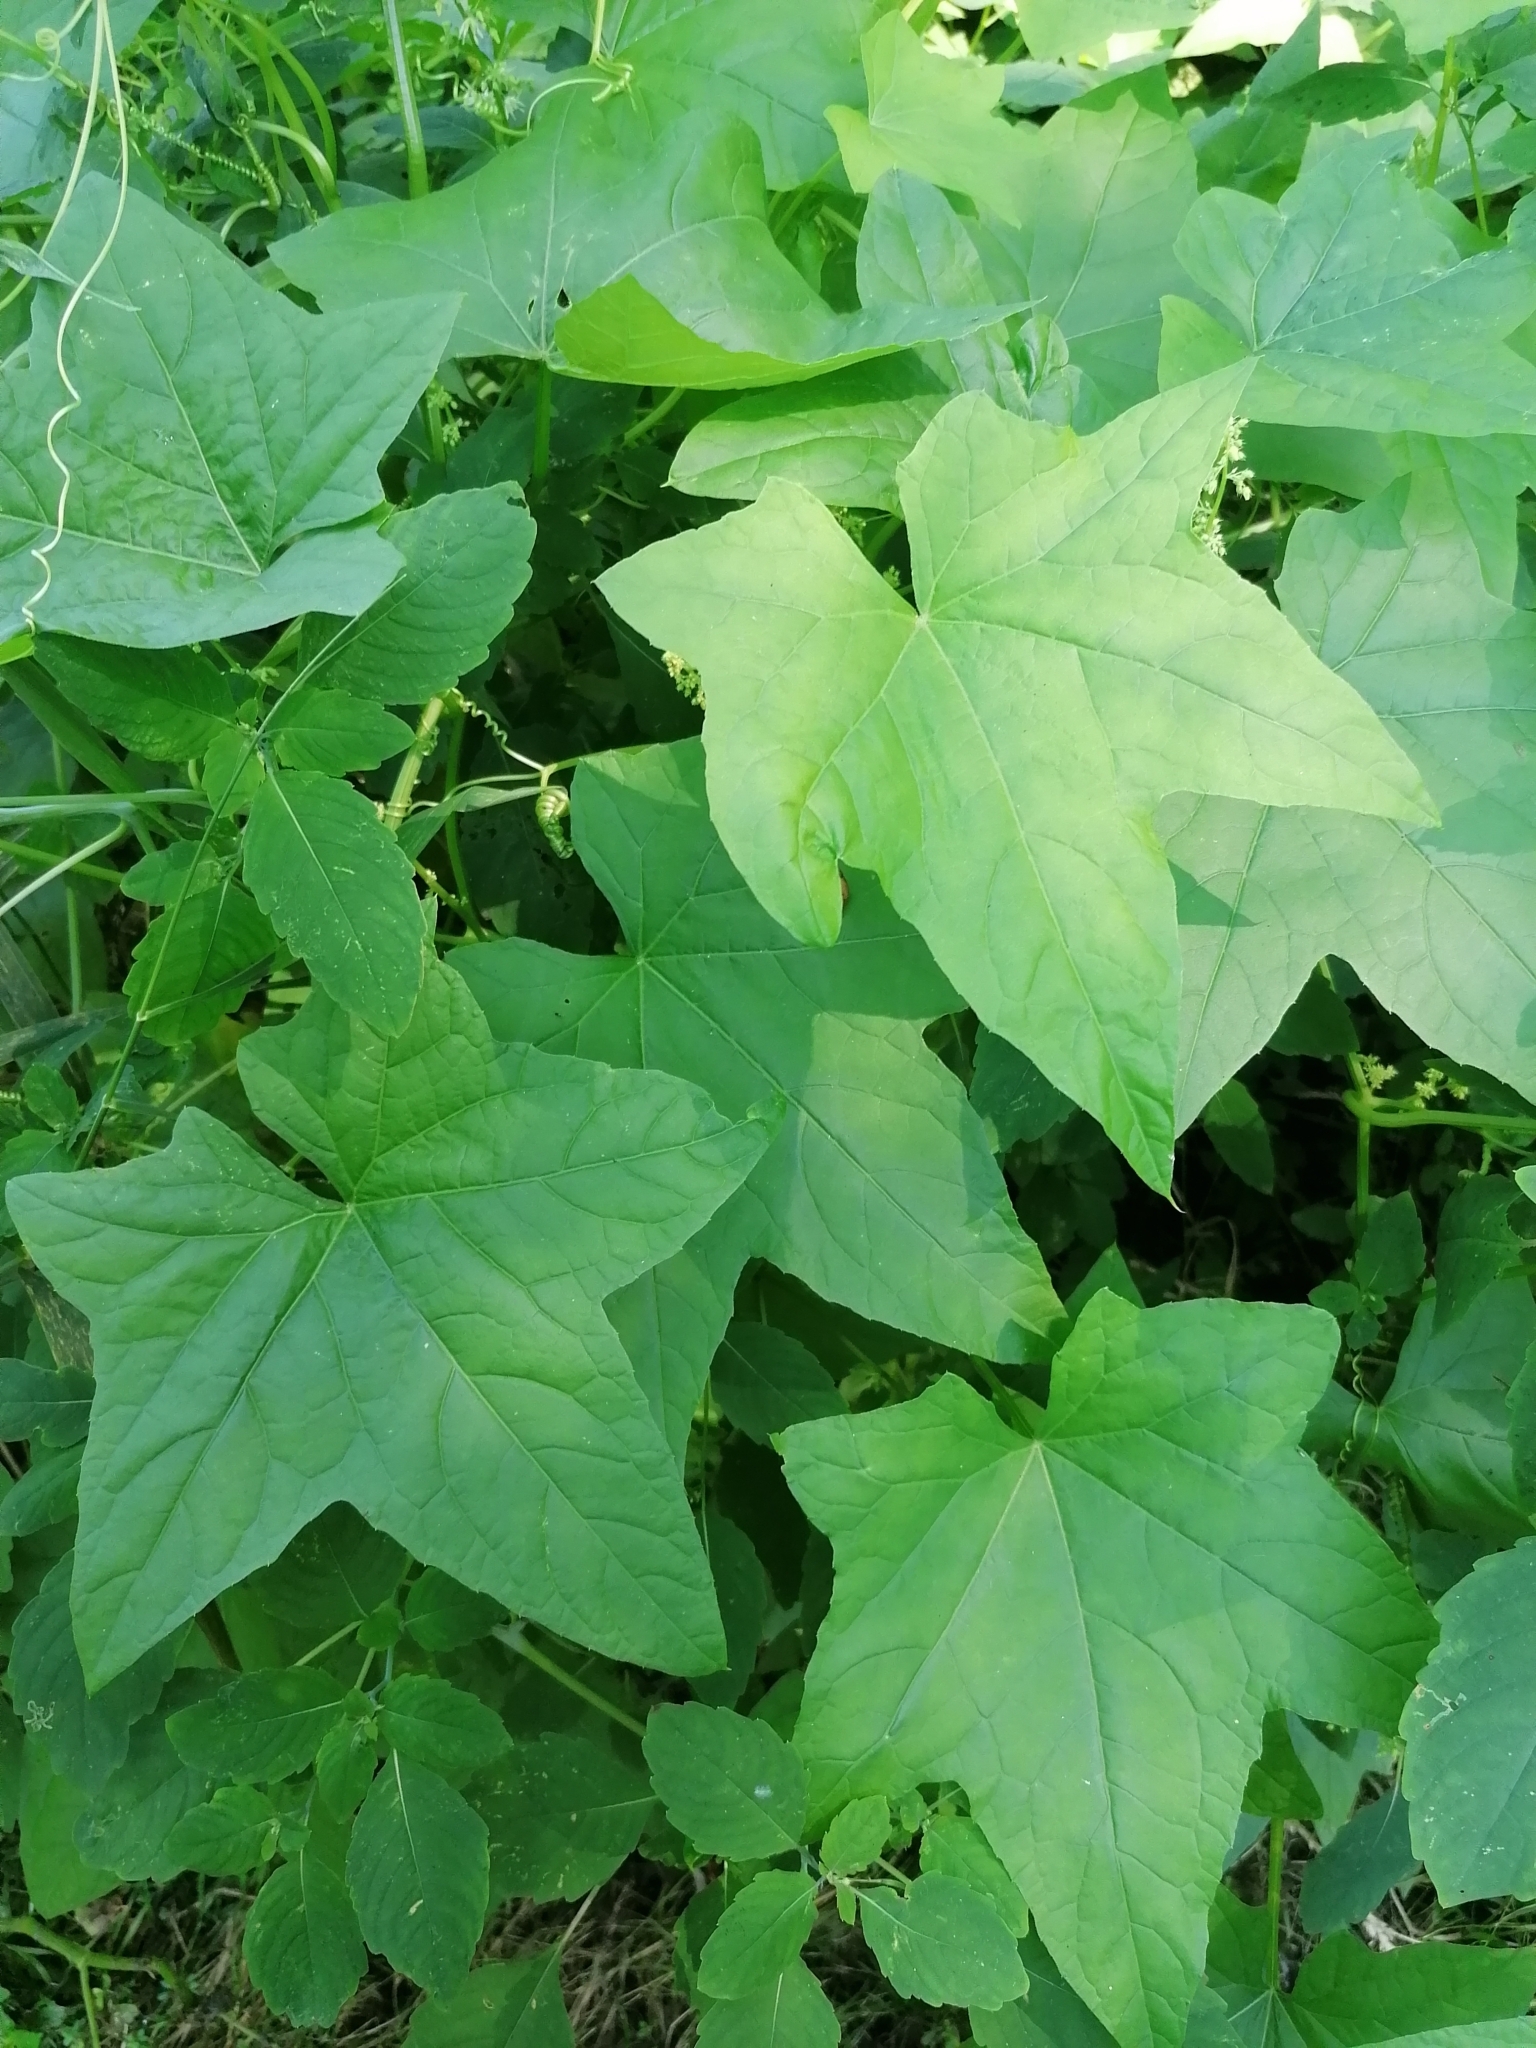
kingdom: Plantae
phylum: Tracheophyta
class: Magnoliopsida
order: Cucurbitales
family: Cucurbitaceae
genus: Echinocystis
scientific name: Echinocystis lobata
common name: Wild cucumber
